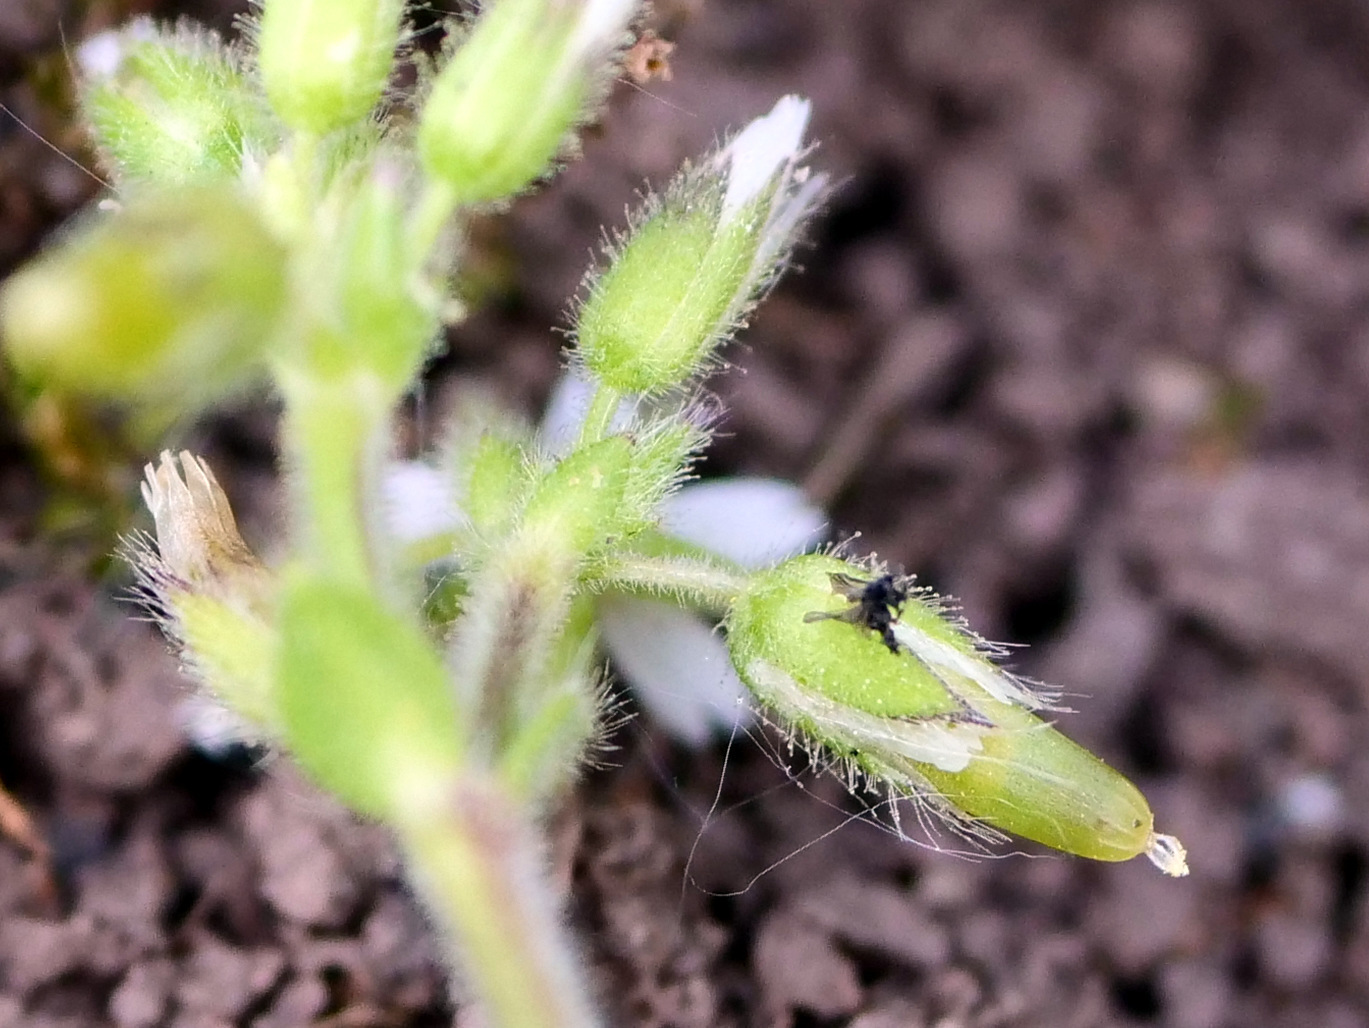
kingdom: Plantae
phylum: Tracheophyta
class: Magnoliopsida
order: Caryophyllales
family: Caryophyllaceae
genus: Cerastium
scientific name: Cerastium glomeratum
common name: Sticky chickweed
